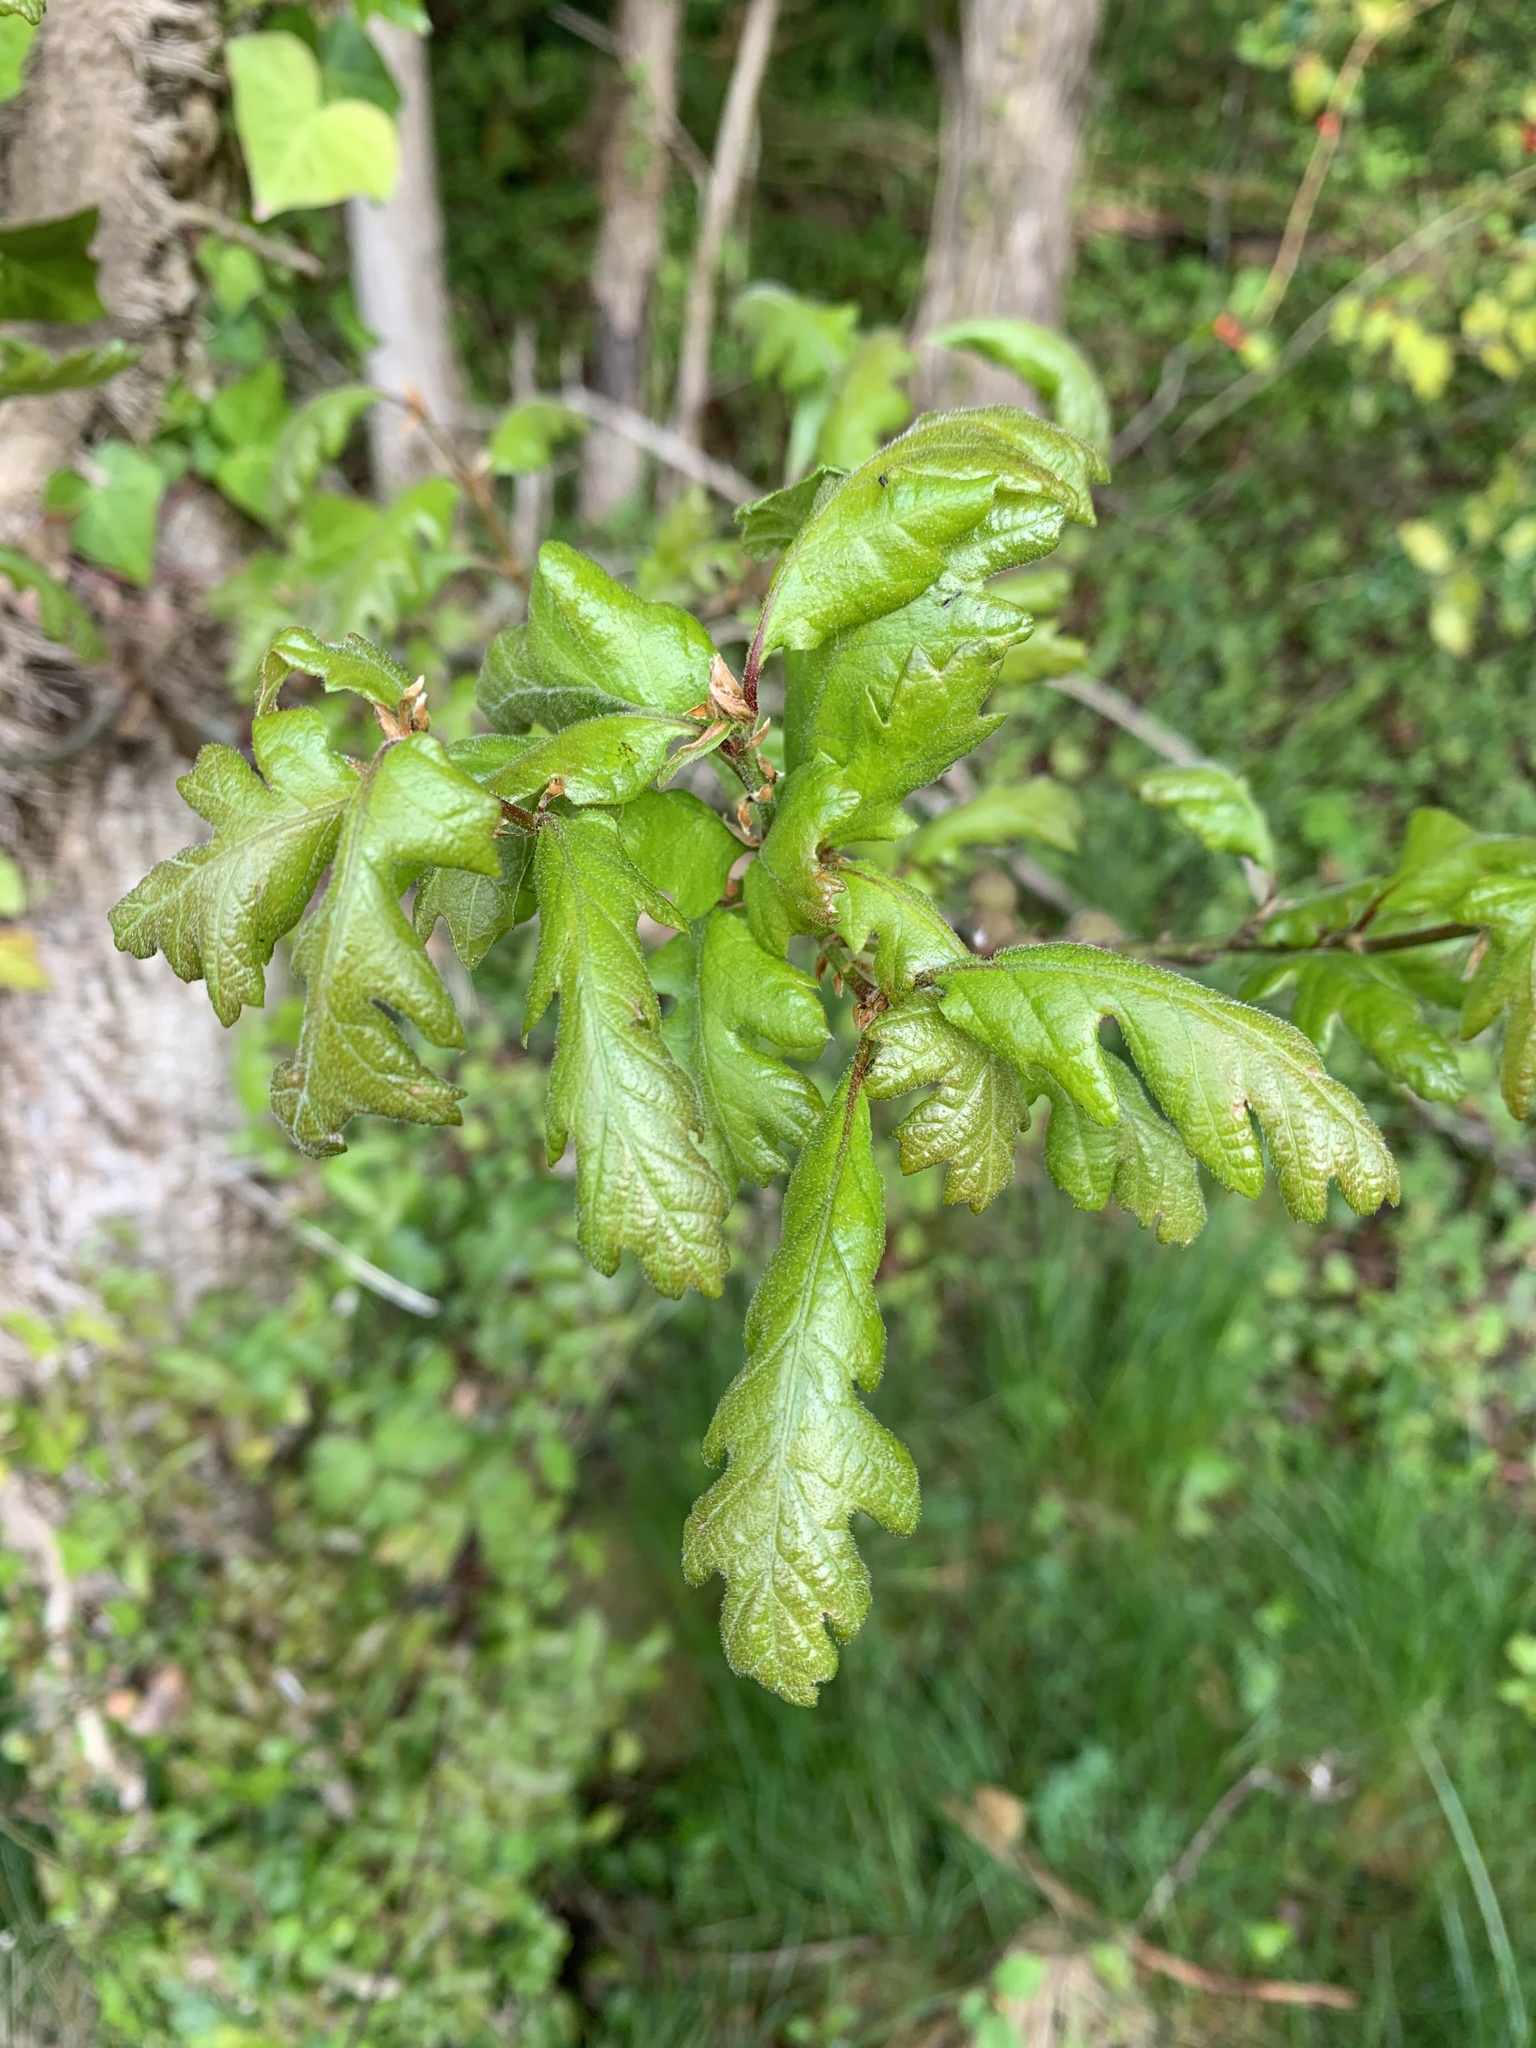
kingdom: Plantae
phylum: Tracheophyta
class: Magnoliopsida
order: Fagales
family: Fagaceae
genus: Quercus
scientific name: Quercus garryana
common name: Garry oak
